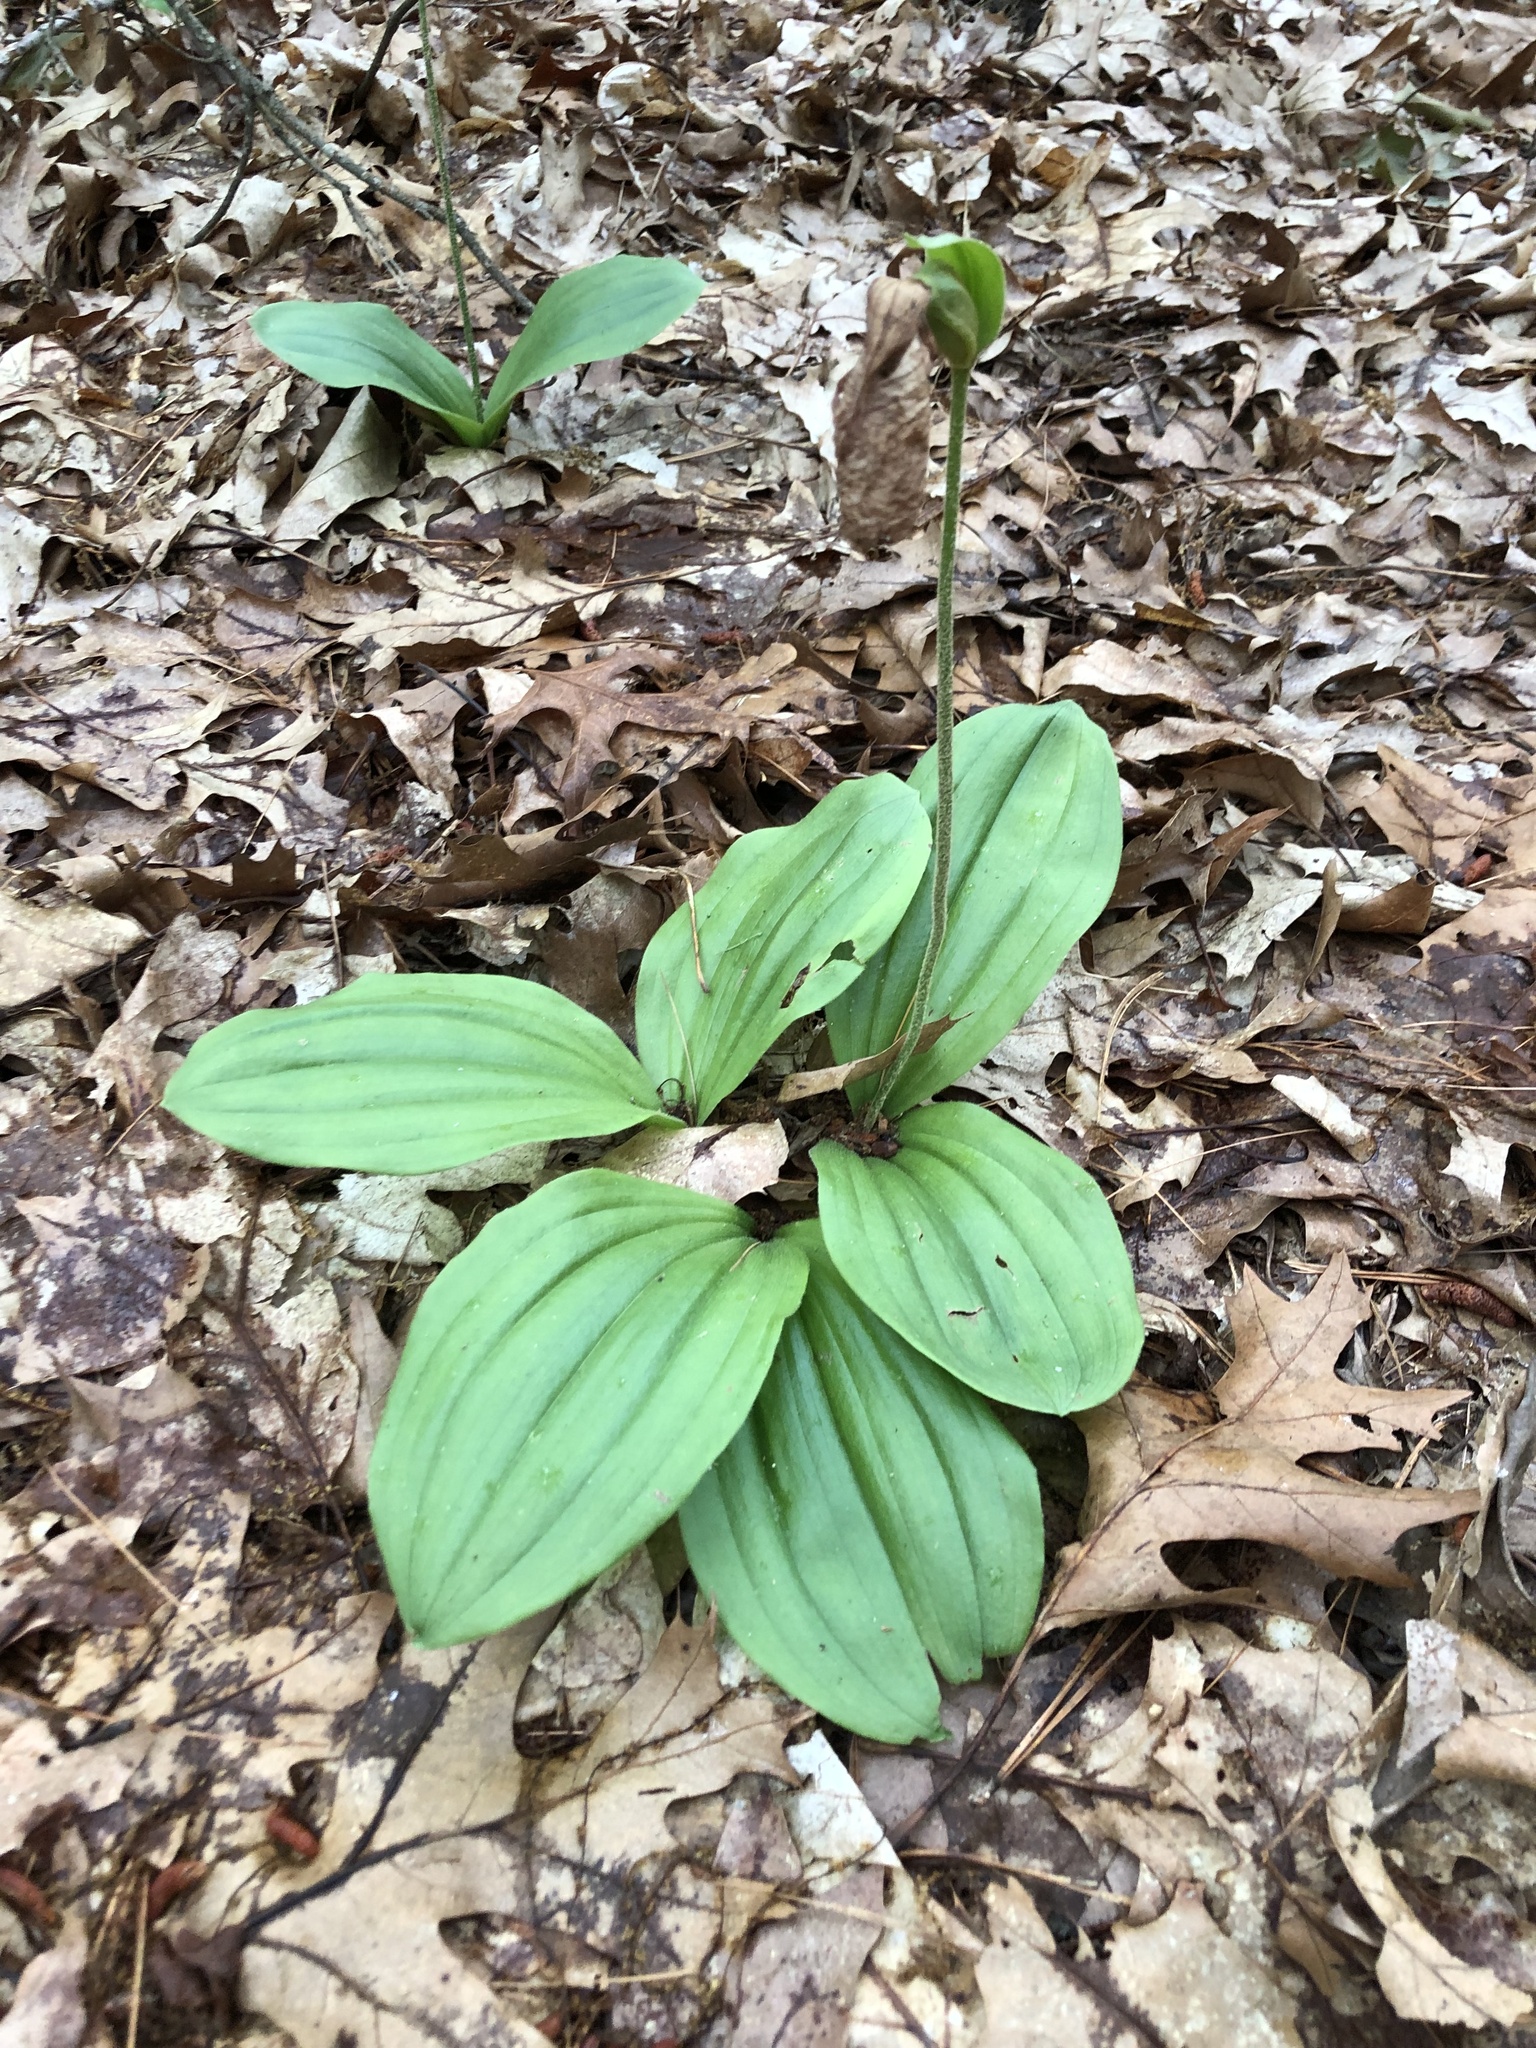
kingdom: Plantae
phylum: Tracheophyta
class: Liliopsida
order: Asparagales
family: Orchidaceae
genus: Cypripedium
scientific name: Cypripedium acaule
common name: Pink lady's-slipper
